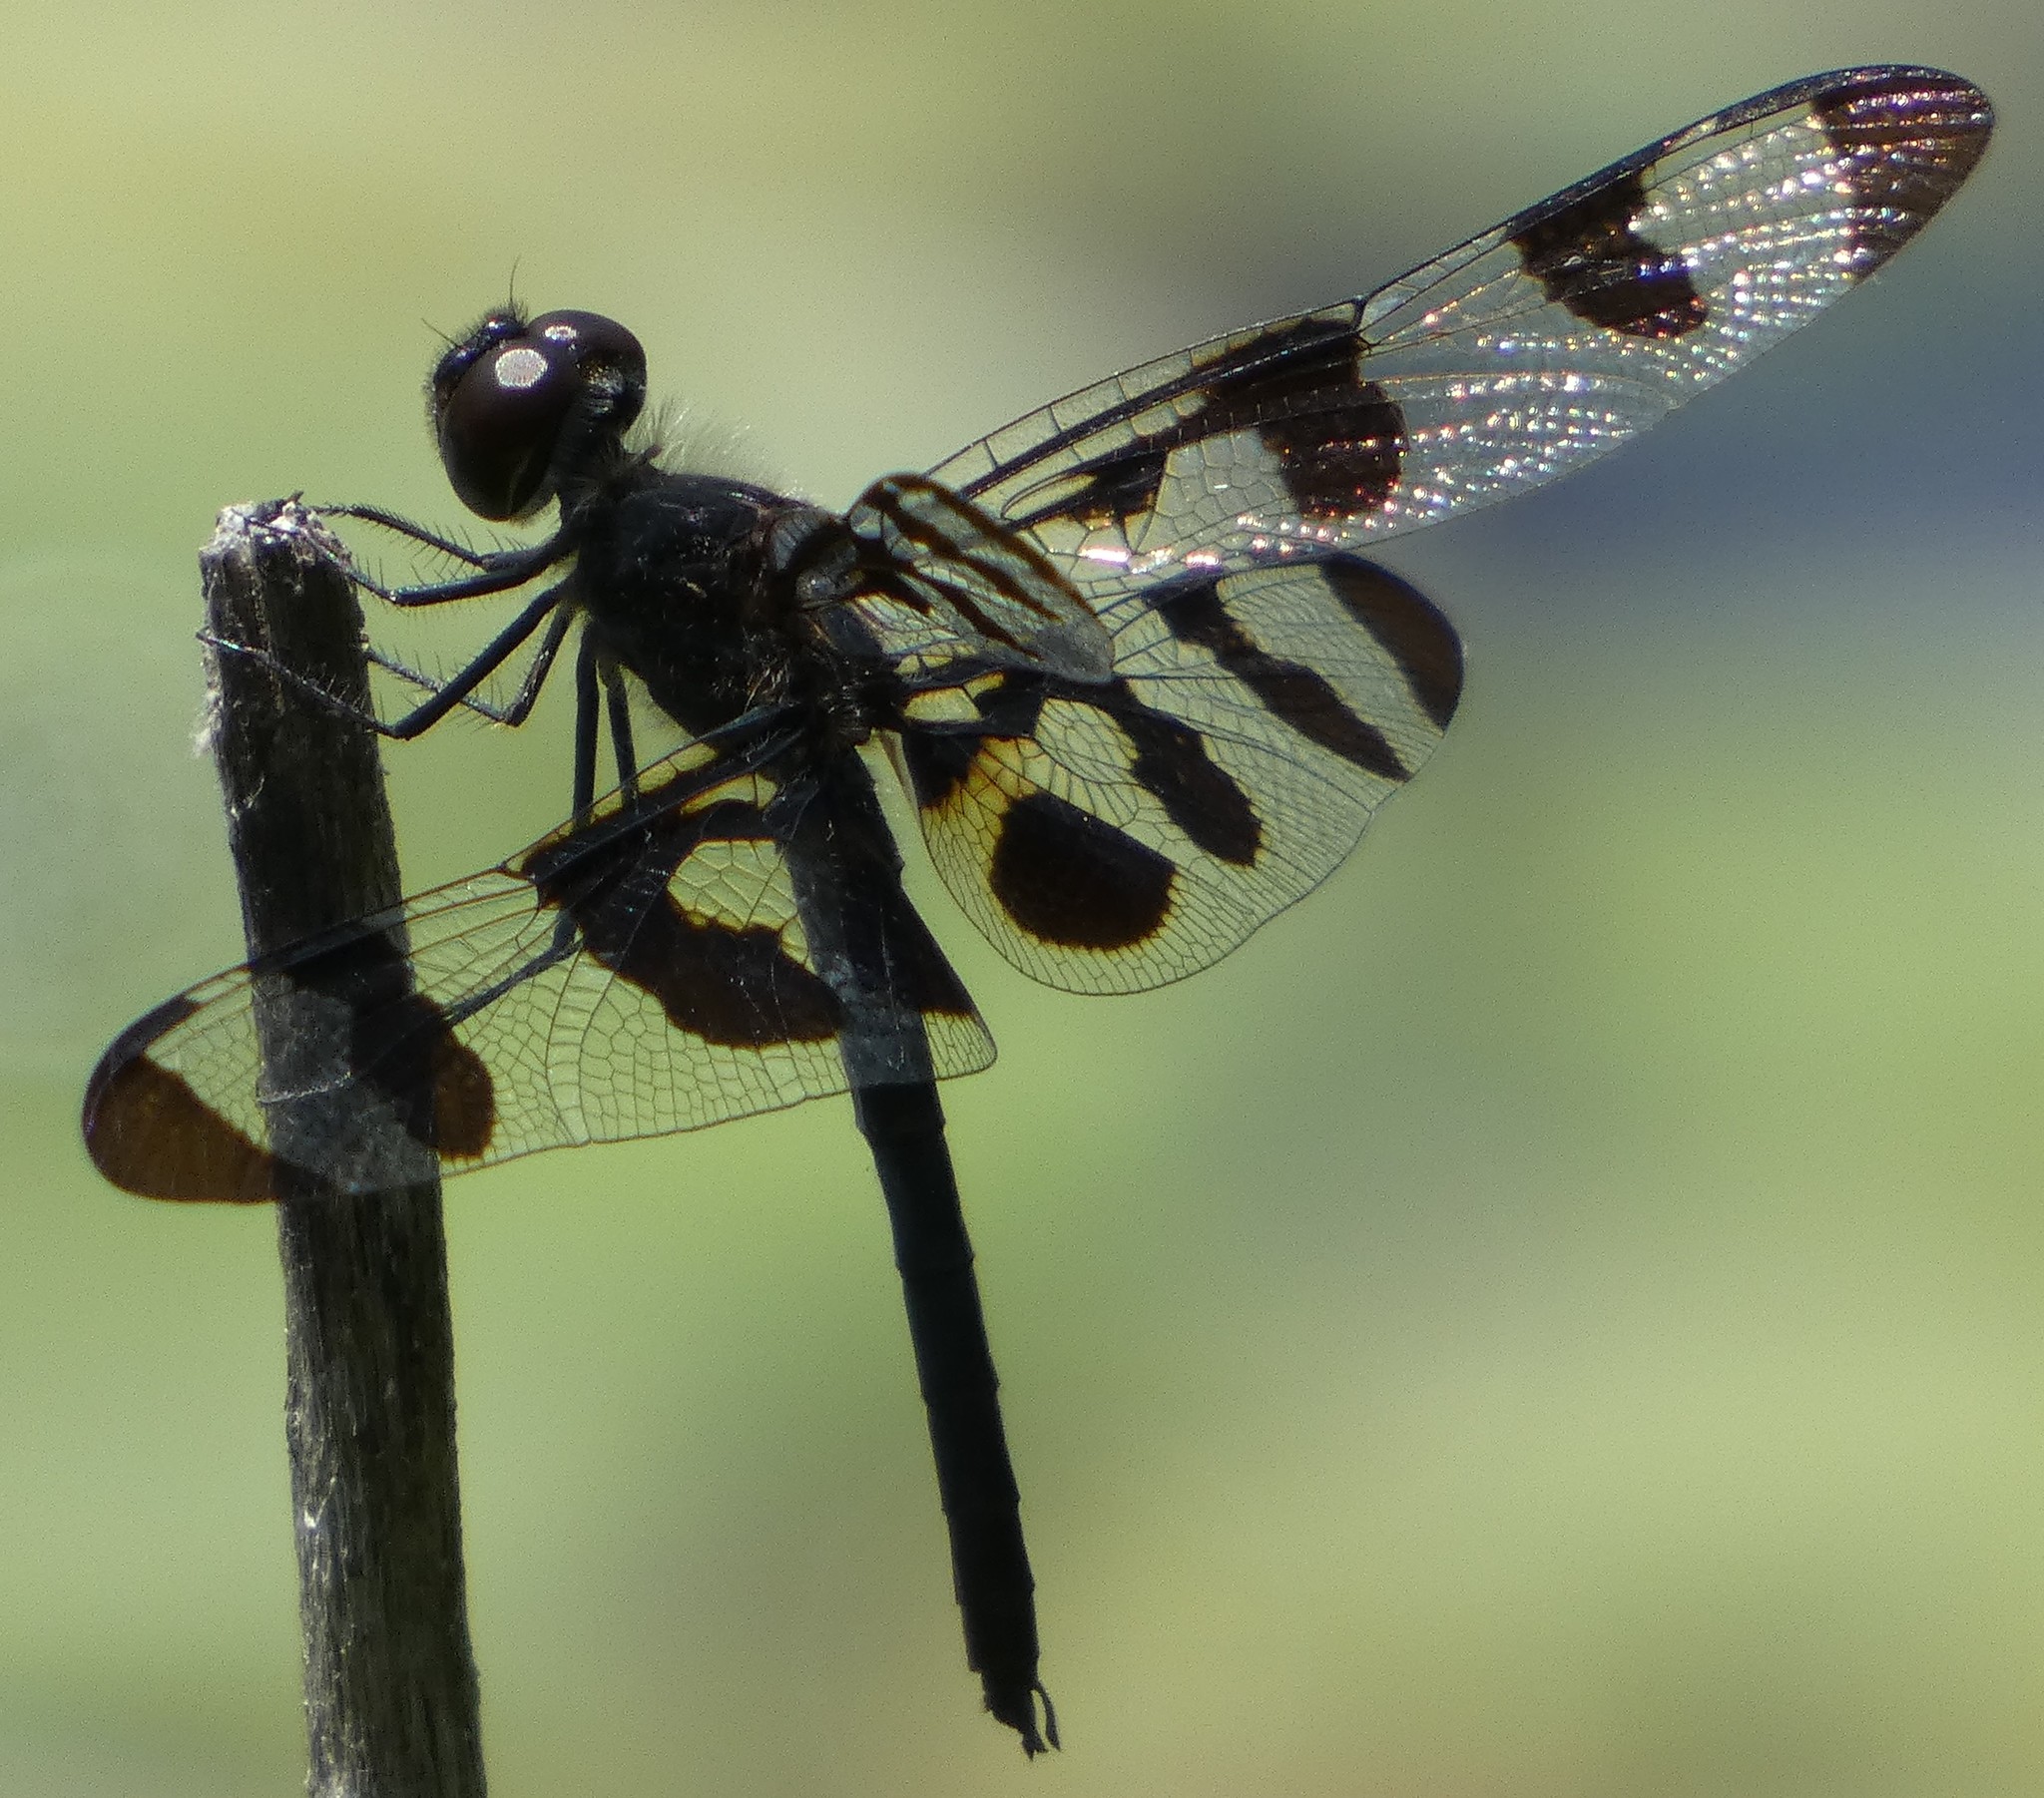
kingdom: Animalia
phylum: Arthropoda
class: Insecta
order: Odonata
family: Libellulidae
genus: Celithemis
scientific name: Celithemis fasciata
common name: Banded pennant
